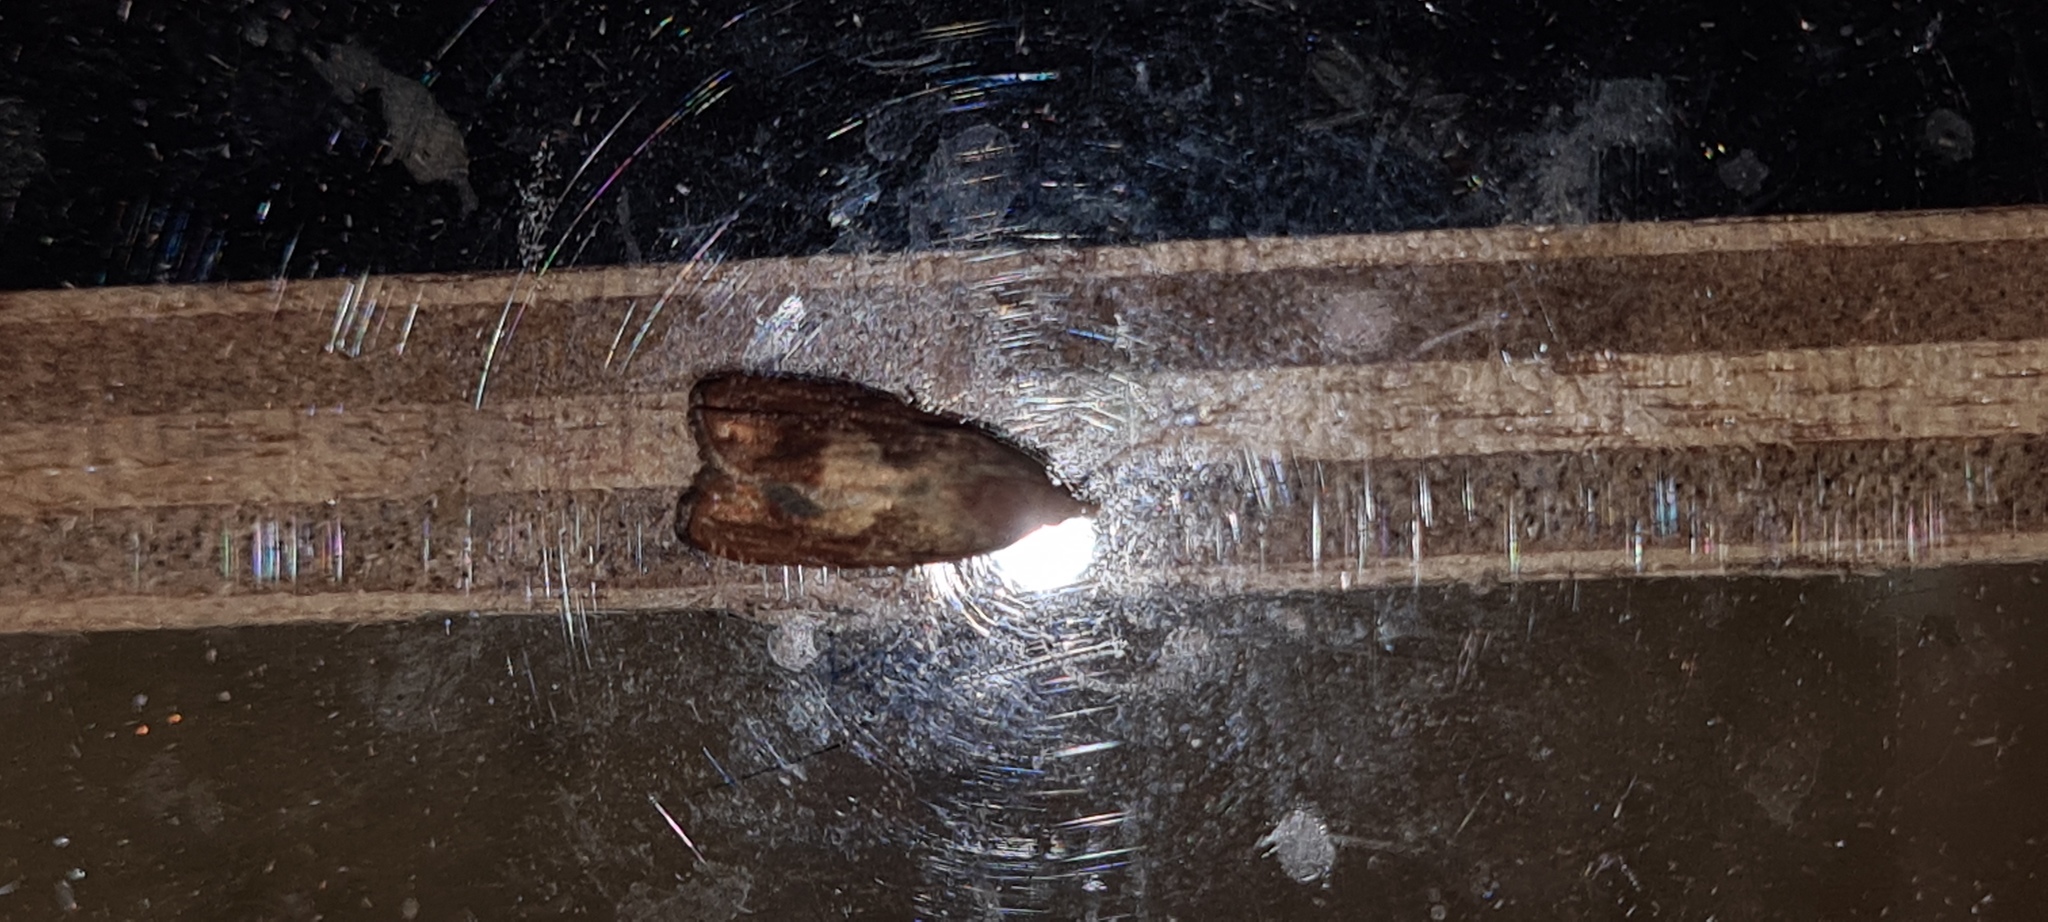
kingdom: Animalia
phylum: Arthropoda
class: Insecta
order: Lepidoptera
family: Tortricidae
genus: Cydia
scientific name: Cydia amplana
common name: Vagrant piercer
